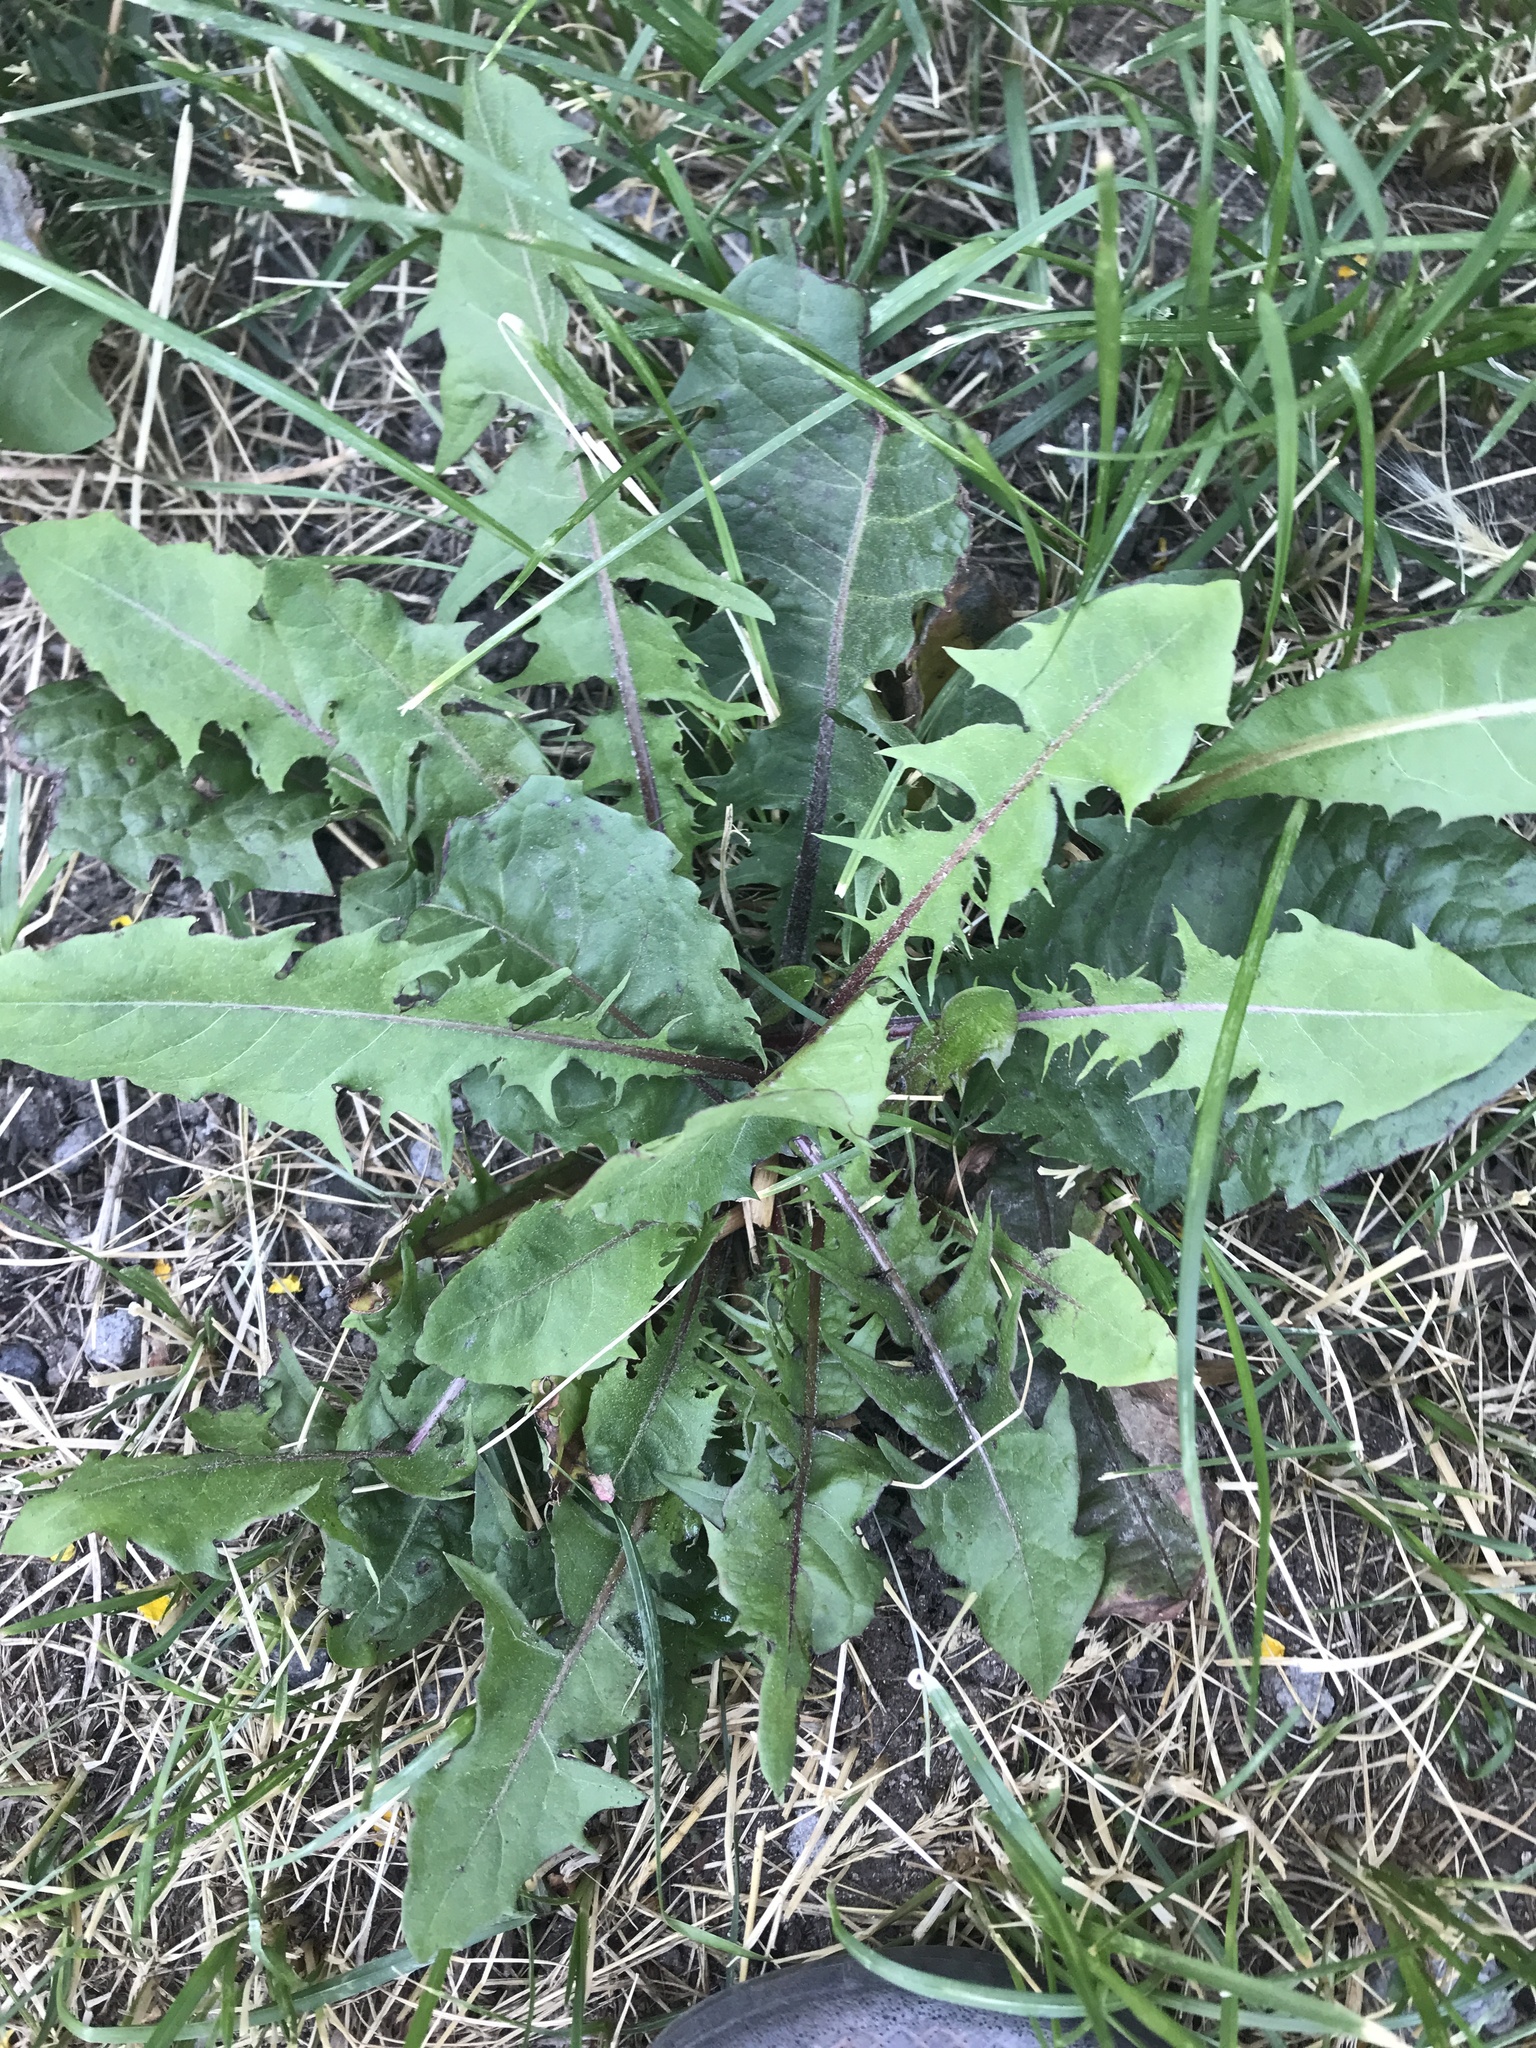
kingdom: Plantae
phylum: Tracheophyta
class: Magnoliopsida
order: Asterales
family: Asteraceae
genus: Taraxacum
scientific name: Taraxacum officinale
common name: Common dandelion
